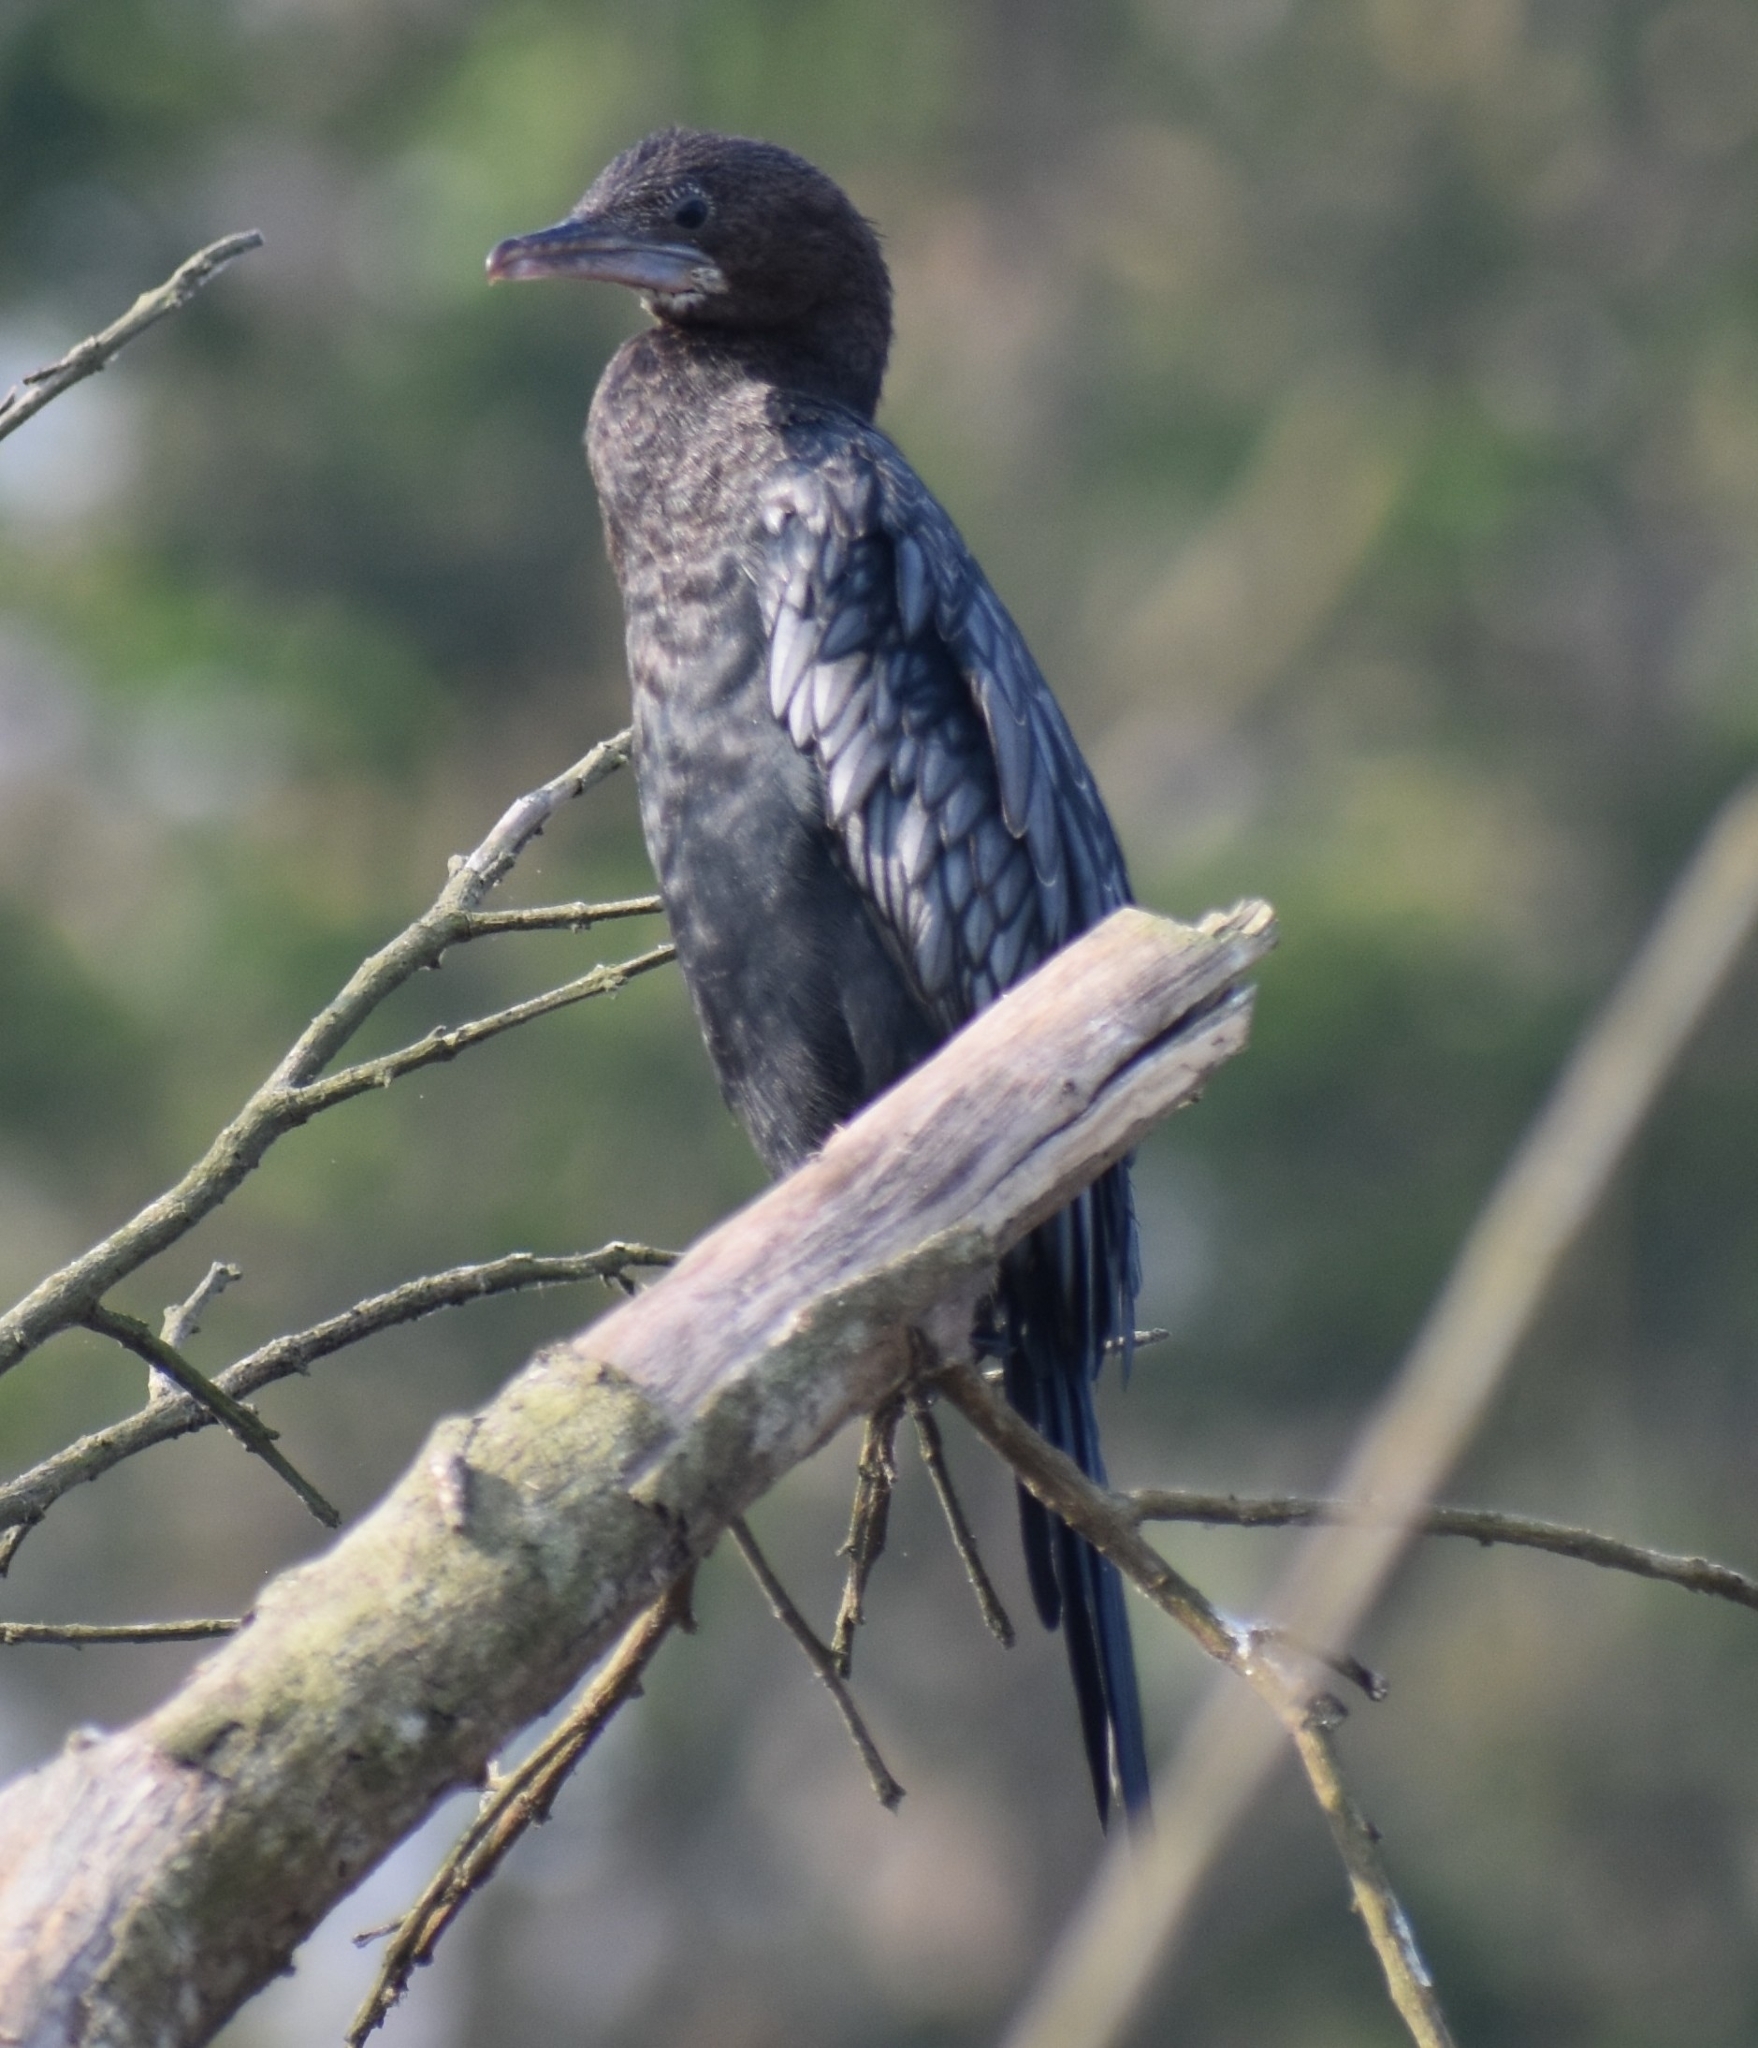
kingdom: Animalia
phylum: Chordata
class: Aves
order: Suliformes
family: Phalacrocoracidae
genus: Microcarbo
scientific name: Microcarbo niger
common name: Little cormorant
